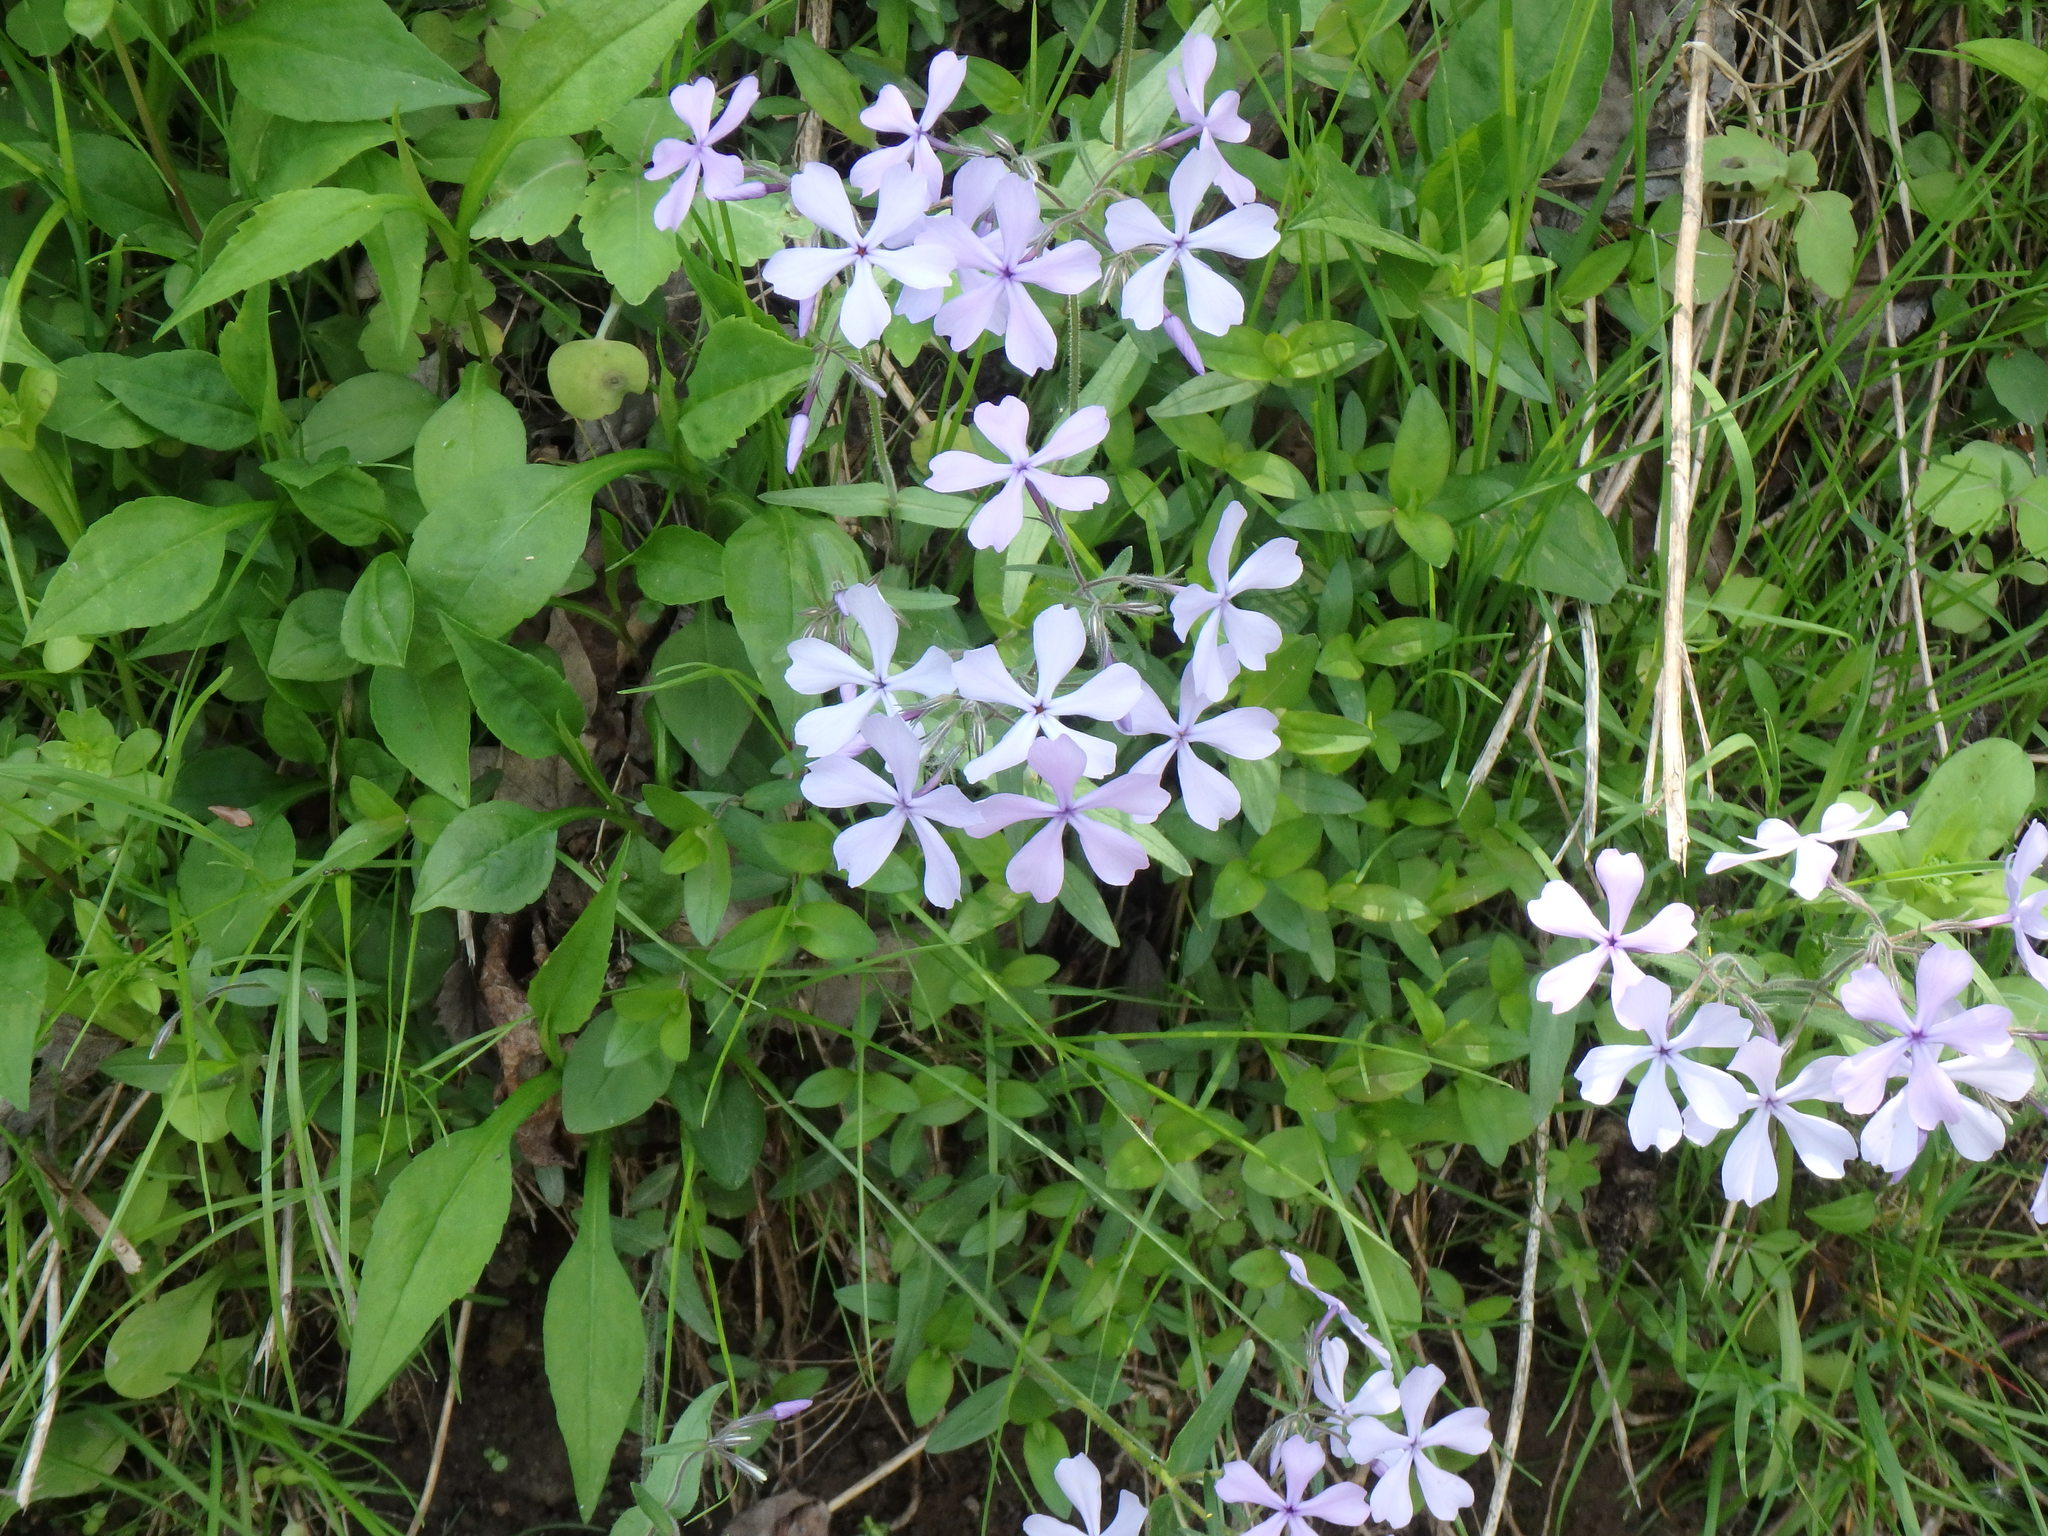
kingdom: Plantae
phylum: Tracheophyta
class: Magnoliopsida
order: Ericales
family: Polemoniaceae
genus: Phlox
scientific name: Phlox divaricata
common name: Blue phlox
